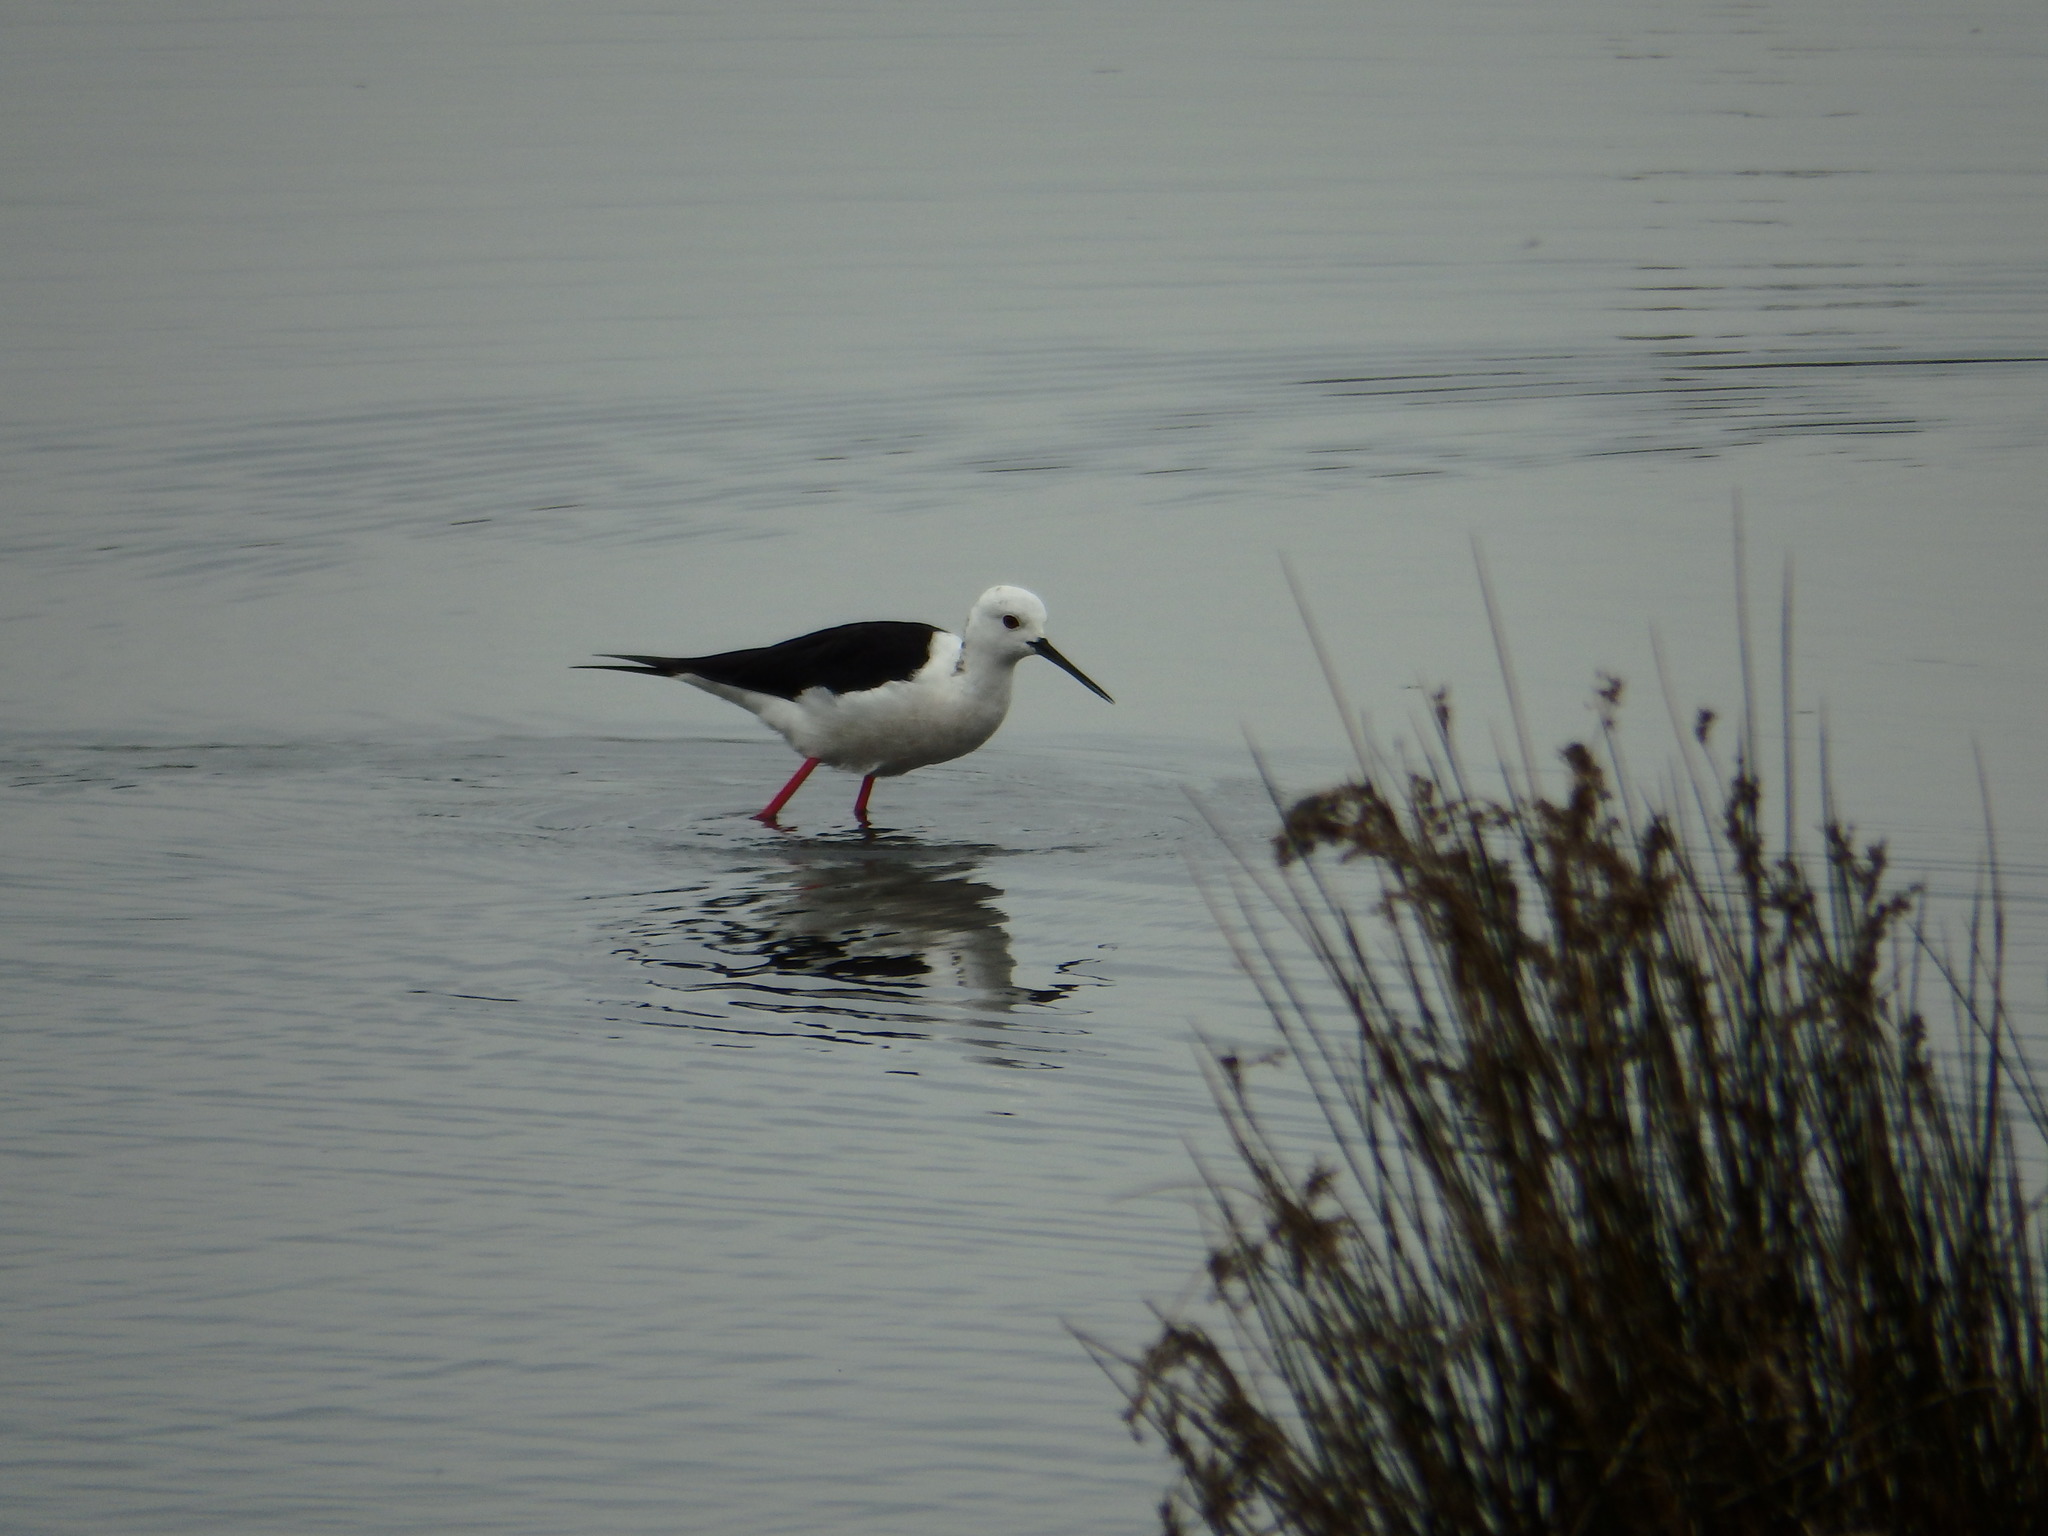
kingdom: Animalia
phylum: Chordata
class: Aves
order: Charadriiformes
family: Recurvirostridae
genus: Himantopus
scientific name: Himantopus himantopus
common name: Black-winged stilt
